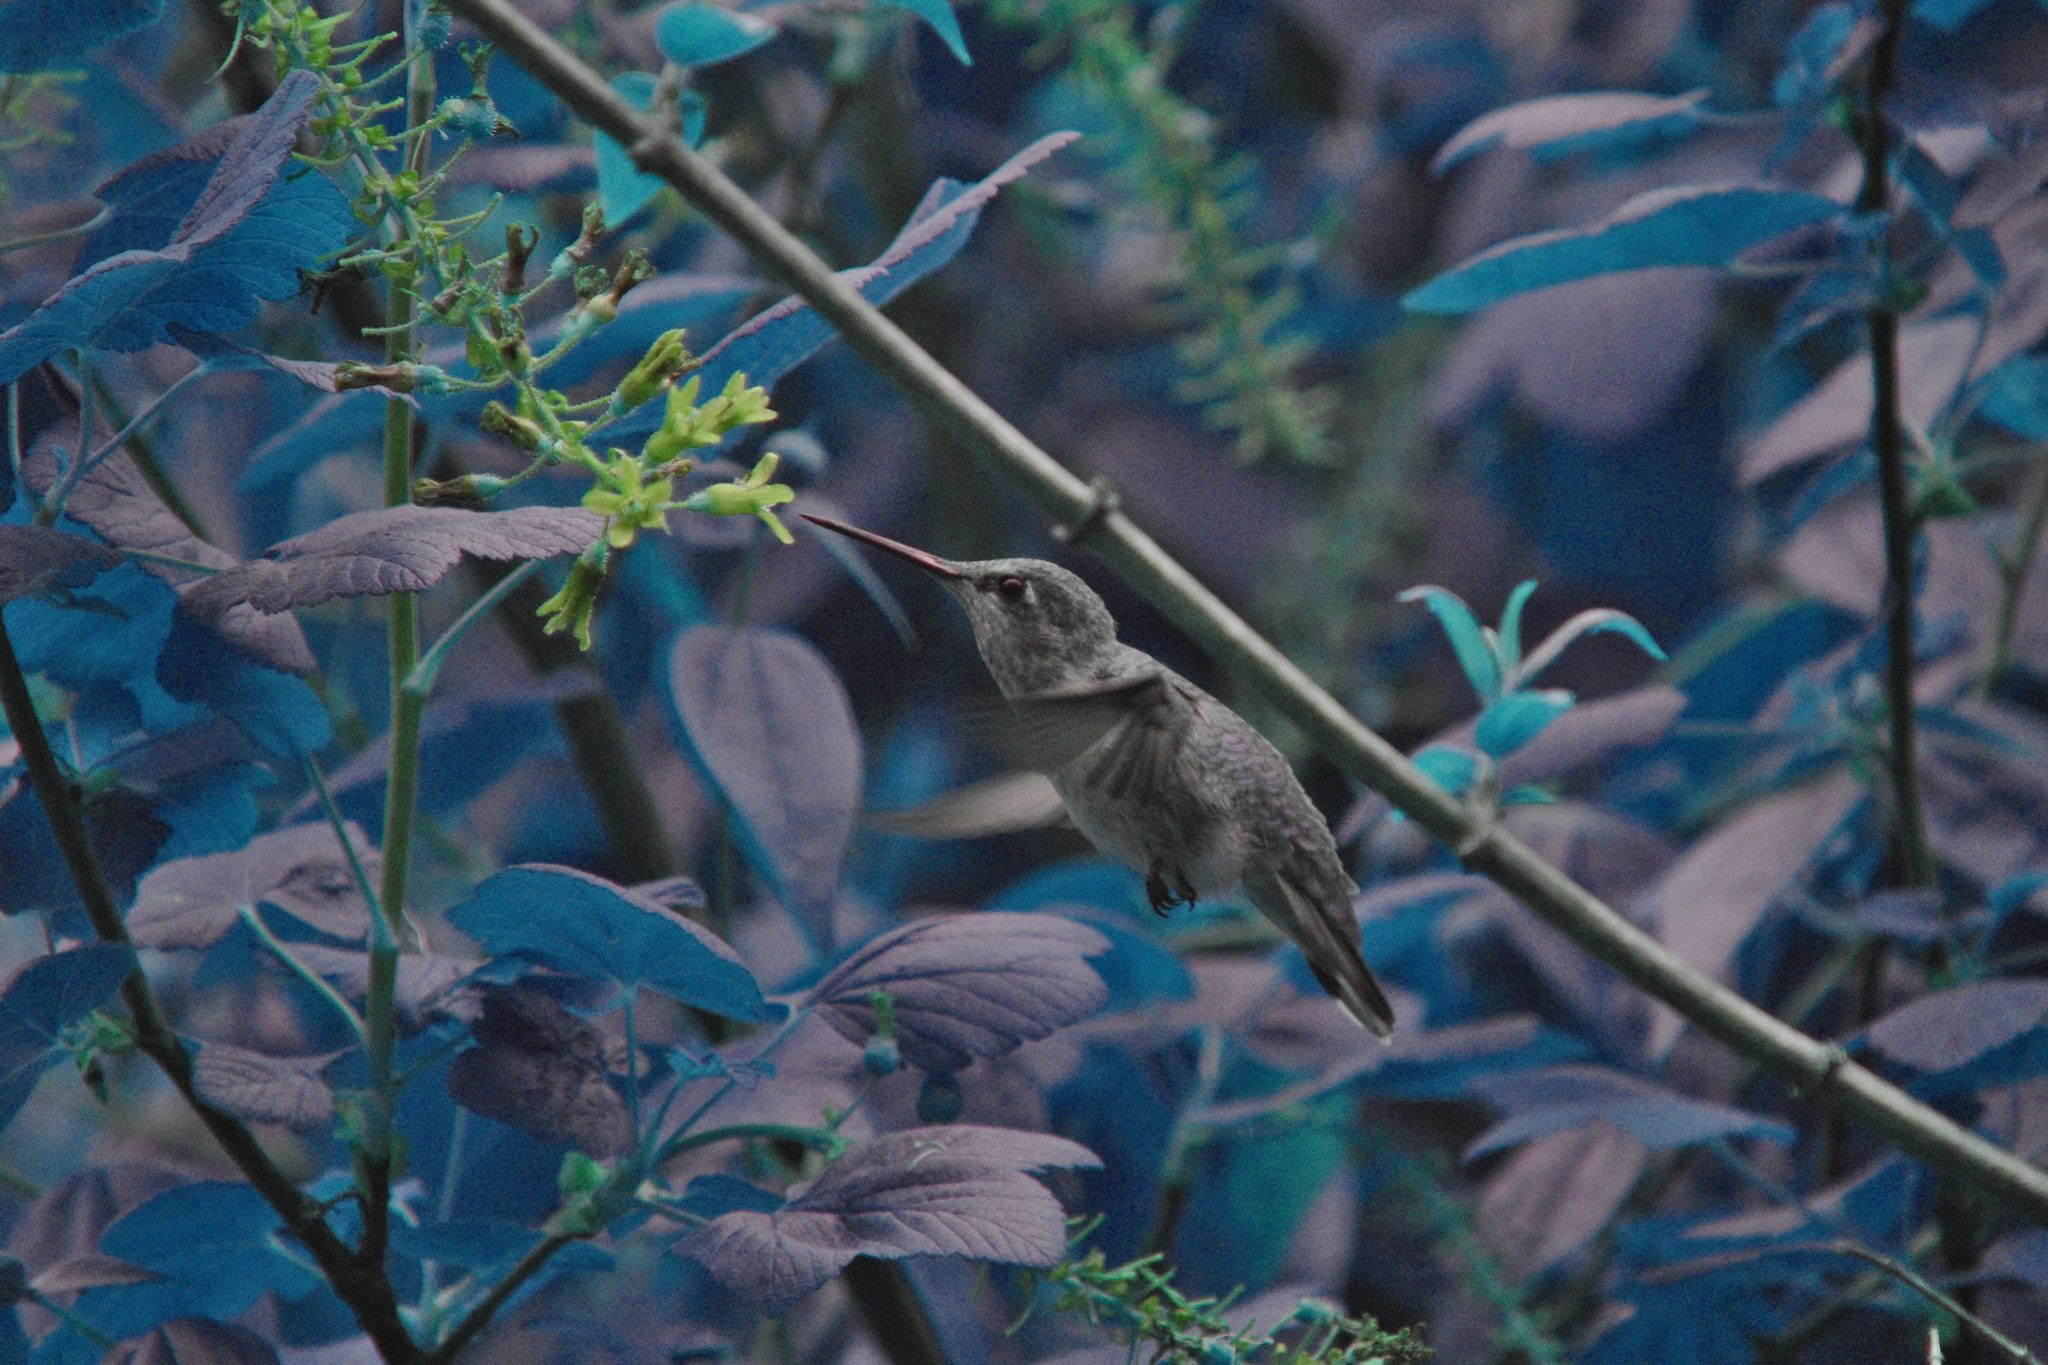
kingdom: Animalia
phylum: Chordata
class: Aves
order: Apodiformes
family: Trochilidae
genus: Calypte
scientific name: Calypte anna
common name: Anna's hummingbird
